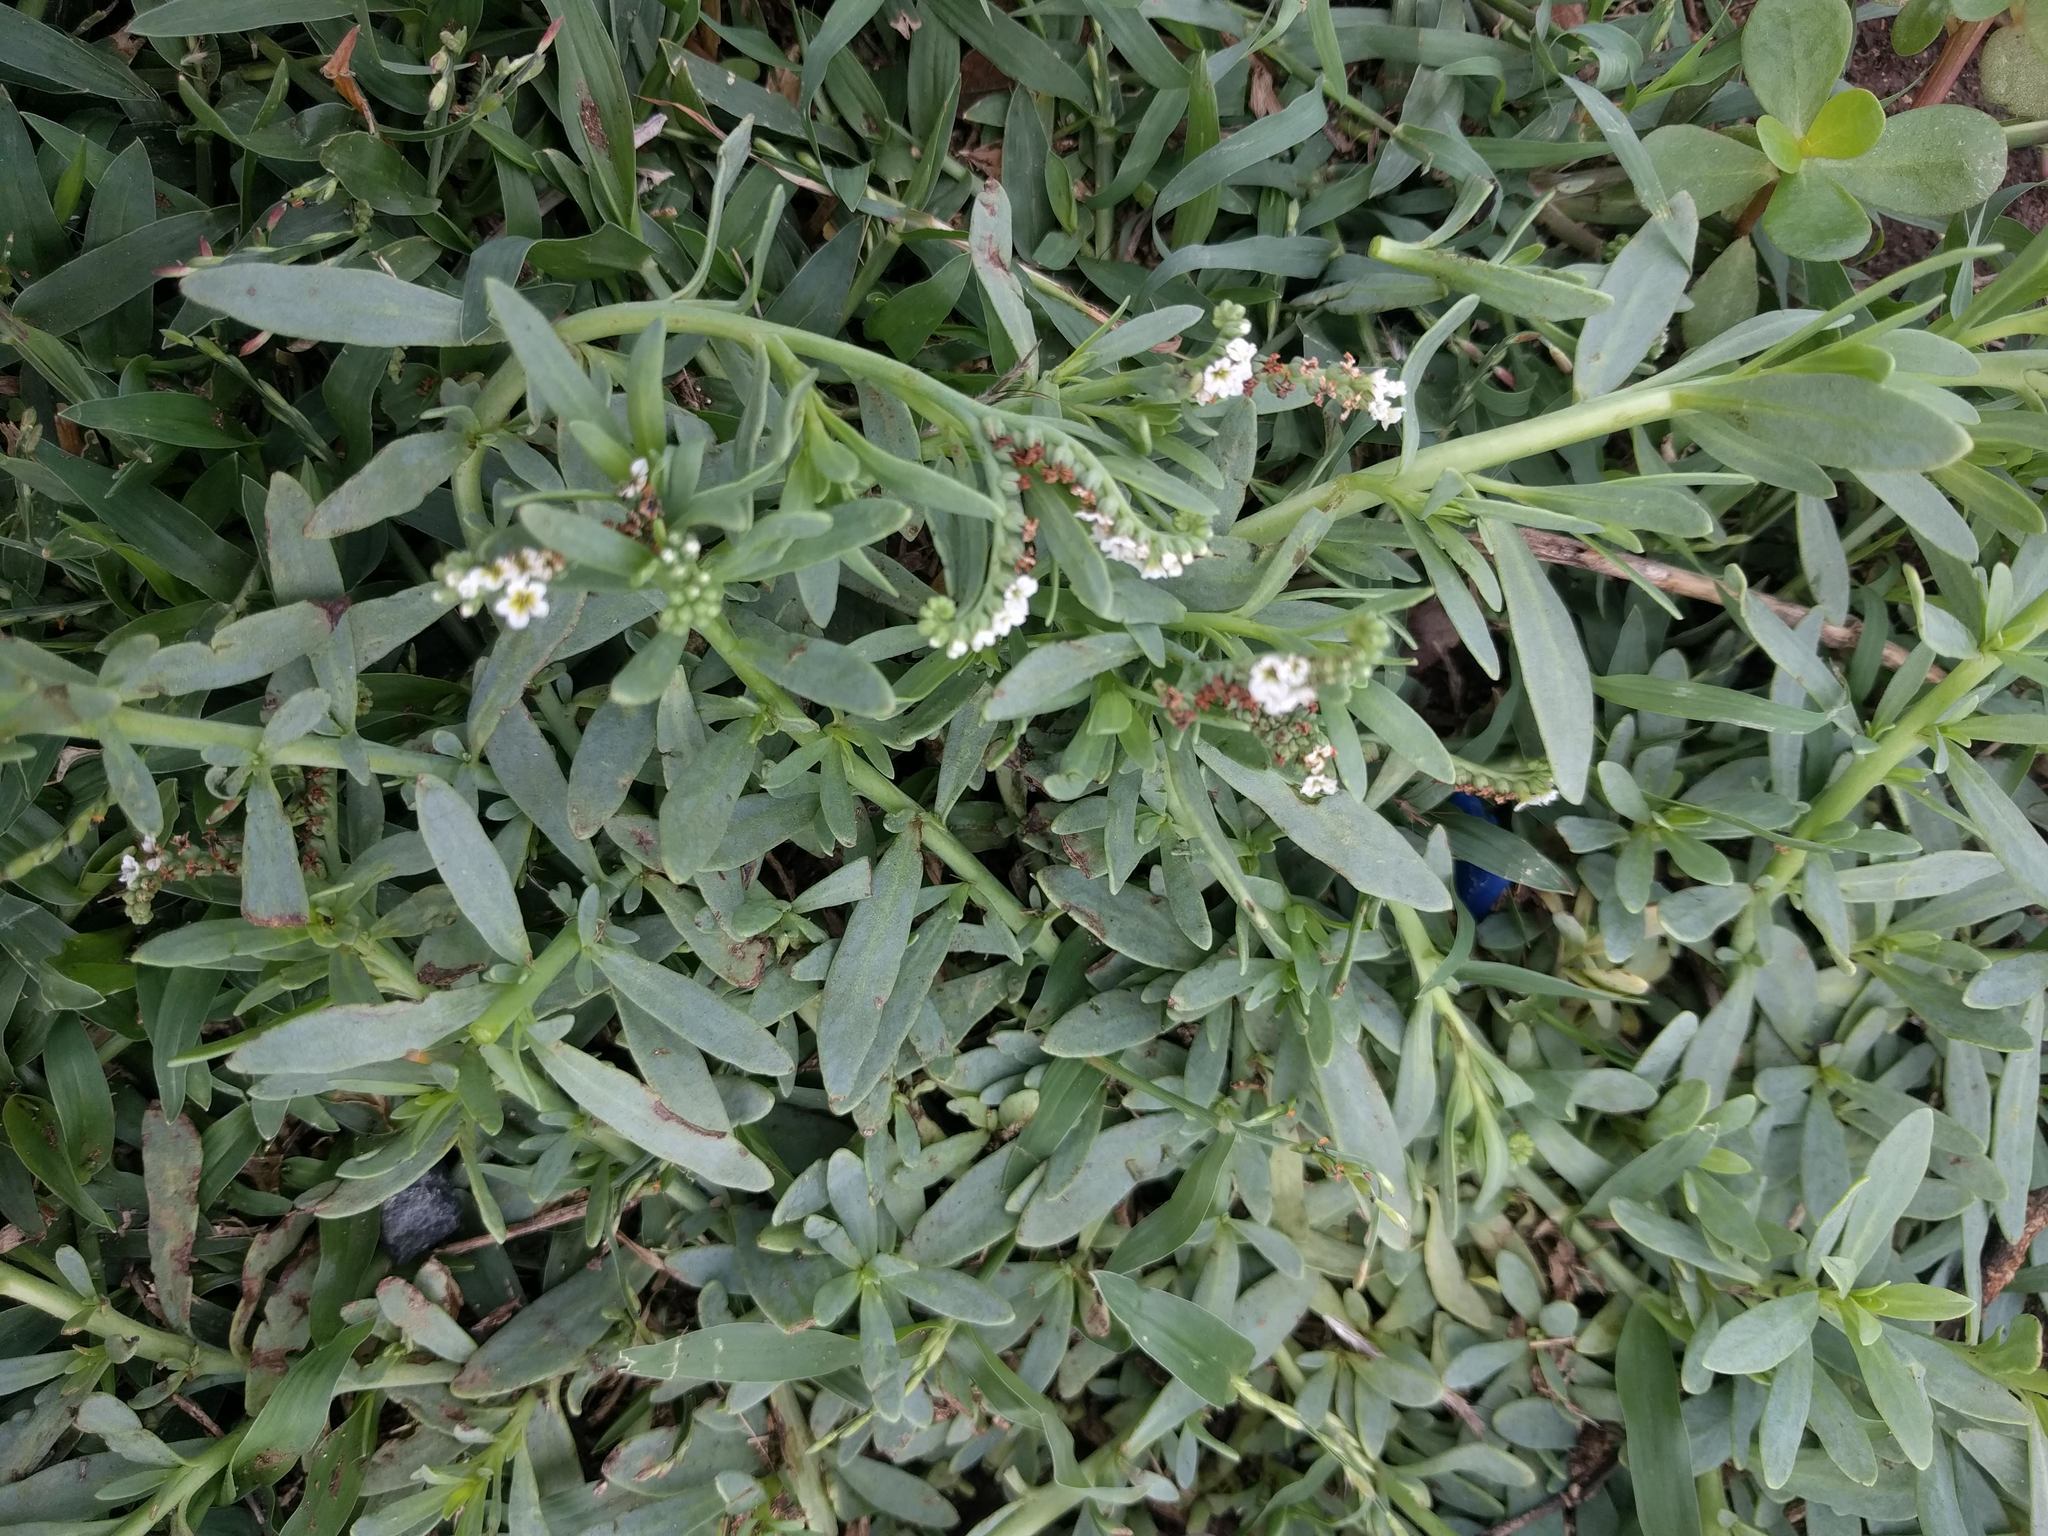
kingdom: Plantae
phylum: Tracheophyta
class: Magnoliopsida
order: Boraginales
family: Heliotropiaceae
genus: Heliotropium
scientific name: Heliotropium curassavicum
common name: Seaside heliotrope
